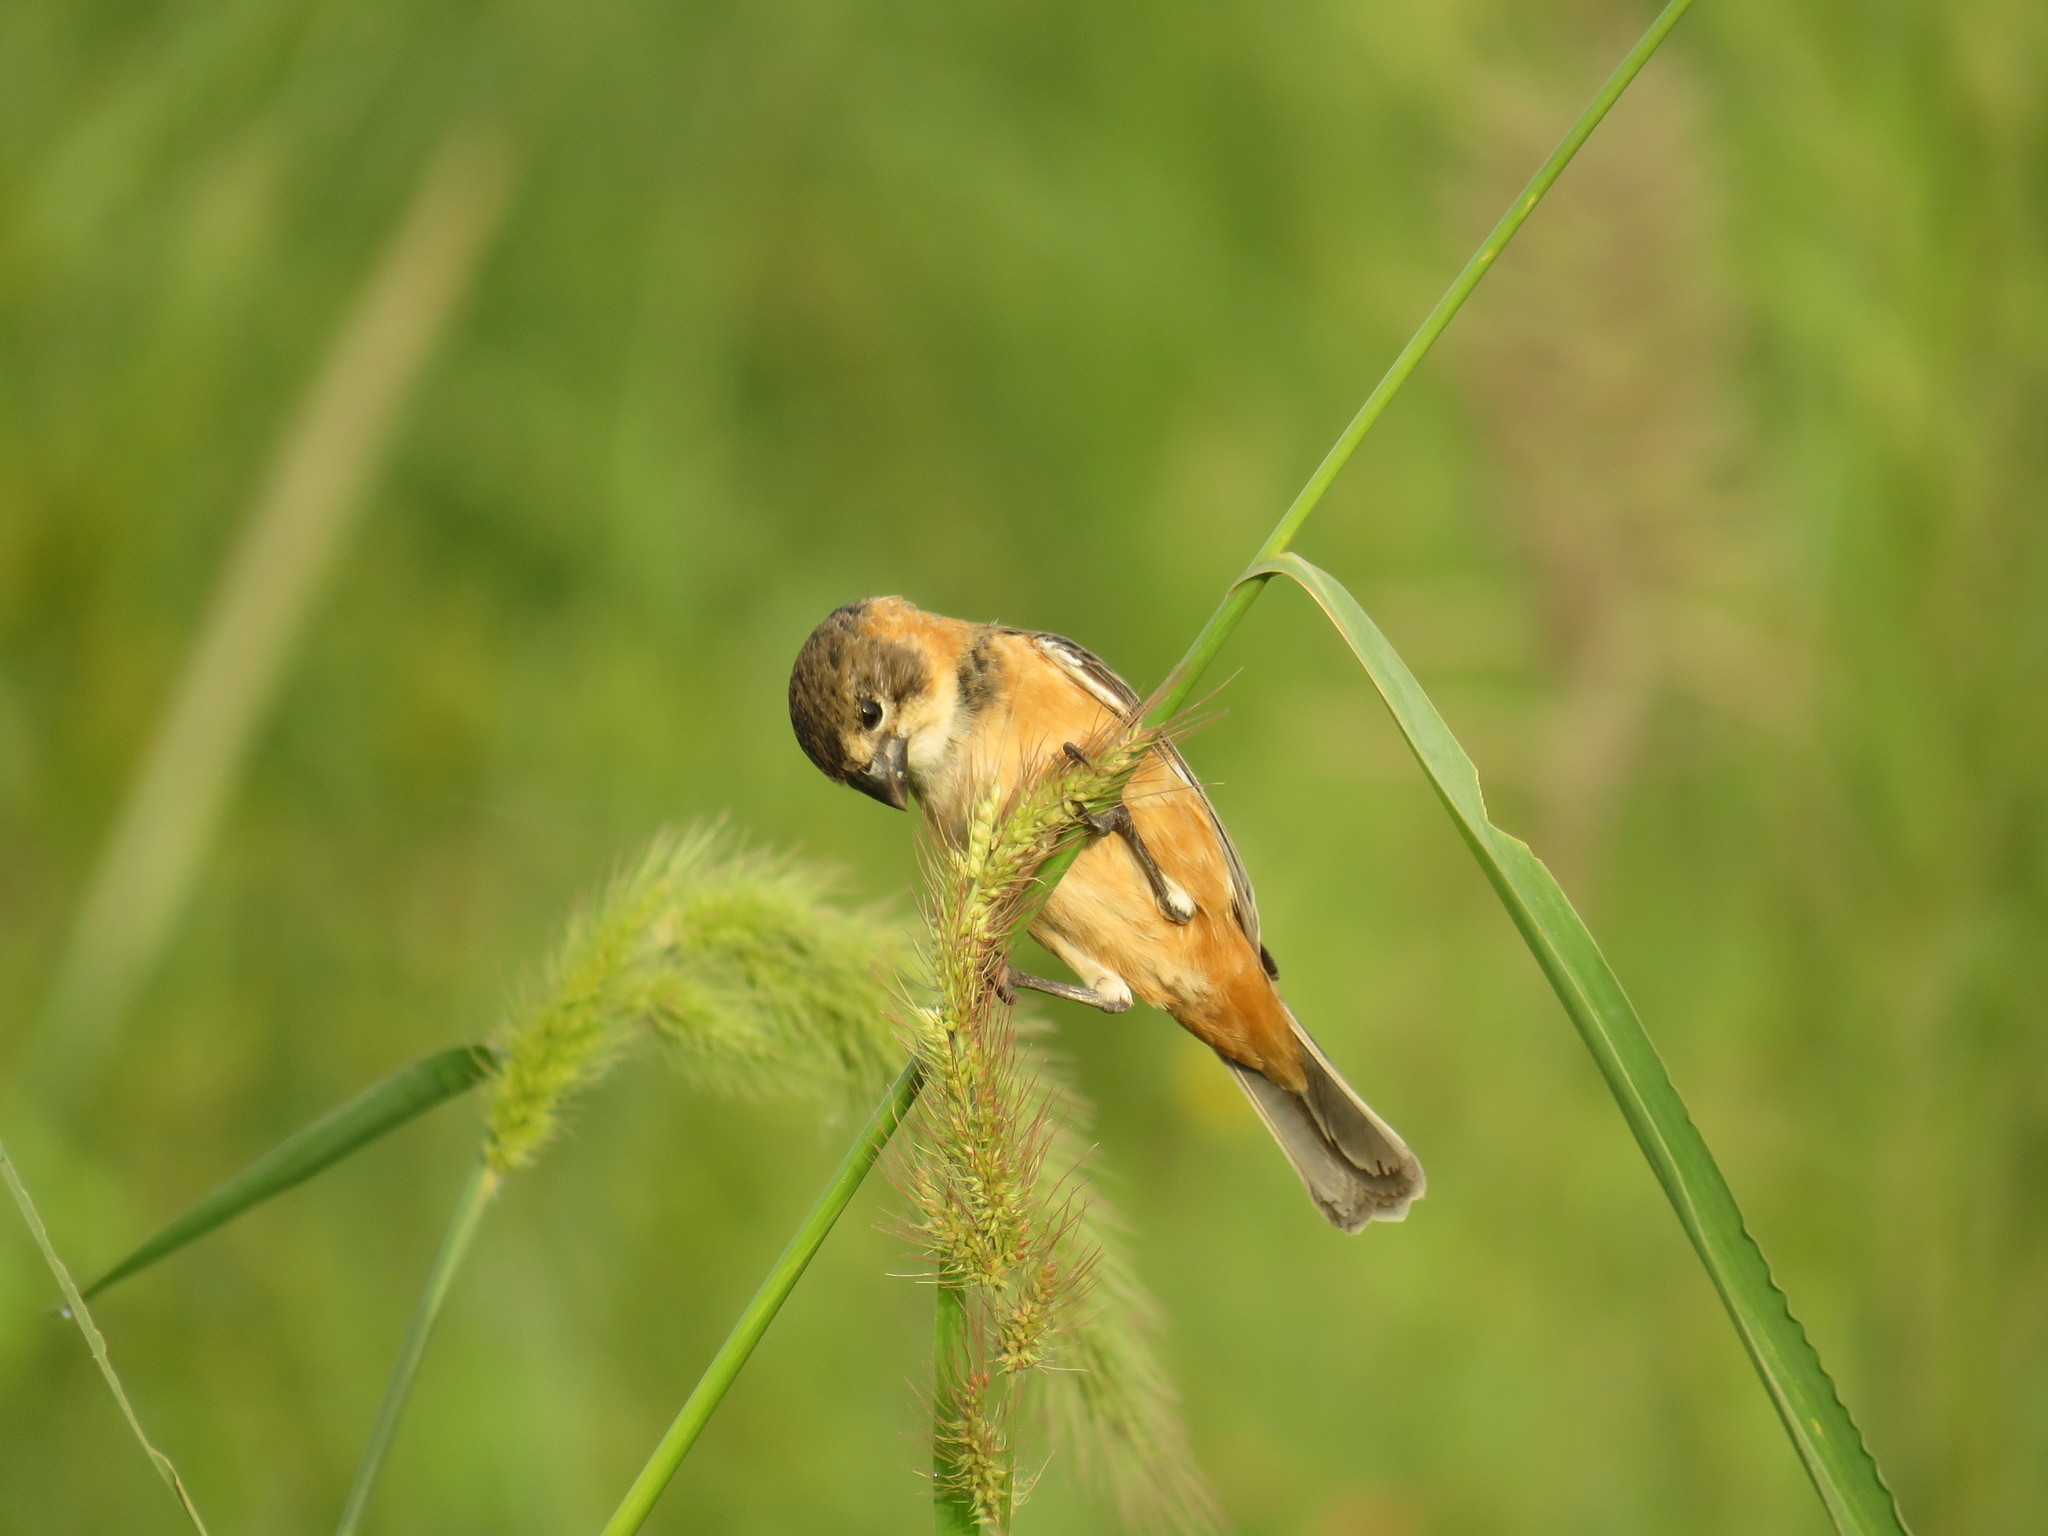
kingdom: Animalia
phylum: Chordata
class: Aves
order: Passeriformes
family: Thraupidae
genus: Sporophila
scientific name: Sporophila collaris
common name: Rusty-collared seedeater
